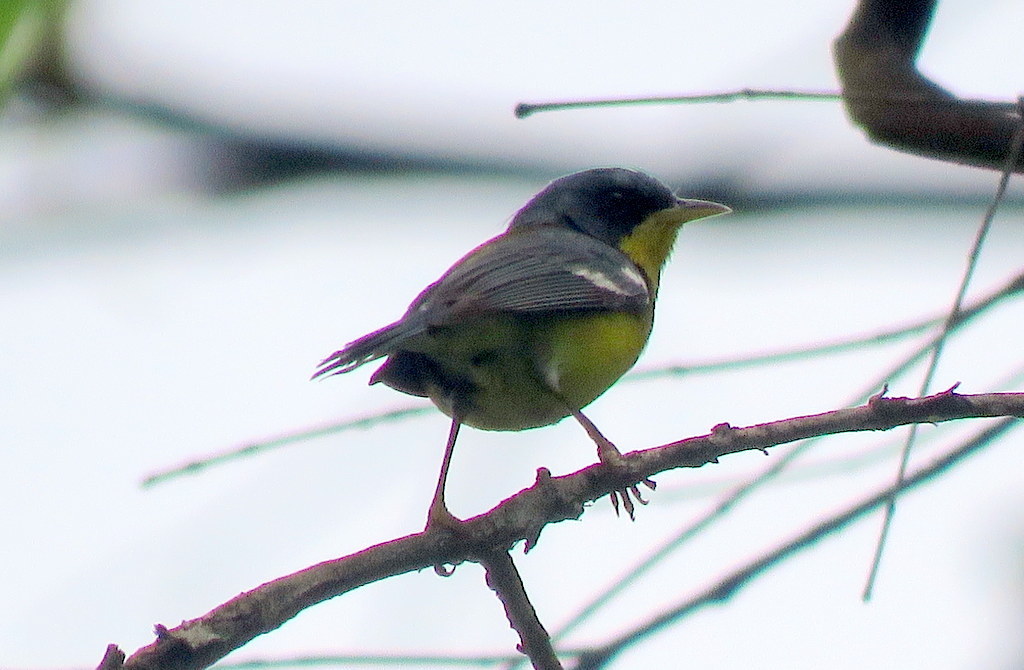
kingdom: Animalia
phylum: Chordata
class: Aves
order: Passeriformes
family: Parulidae
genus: Setophaga
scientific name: Setophaga pitiayumi
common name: Tropical parula
